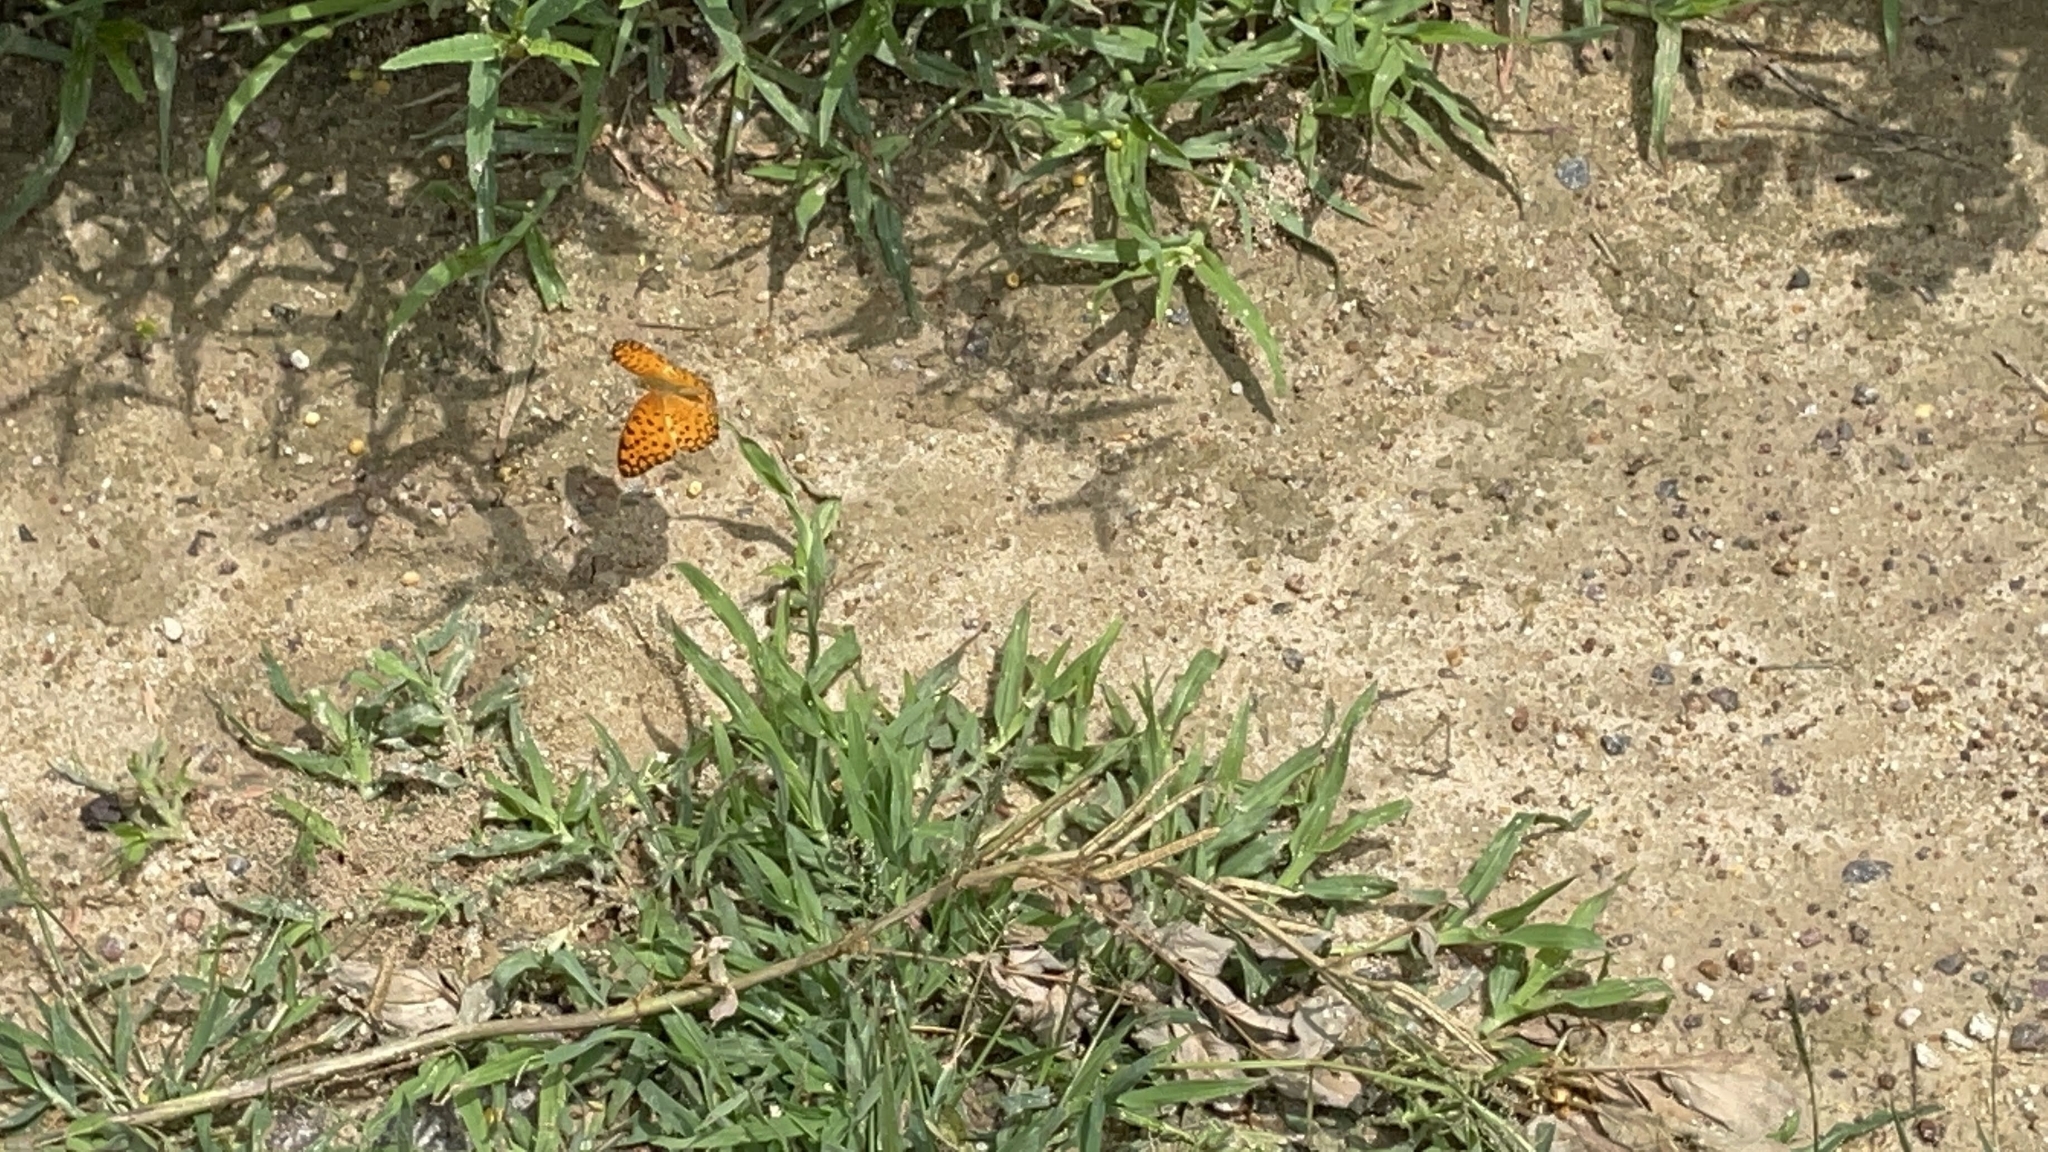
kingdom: Animalia
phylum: Arthropoda
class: Insecta
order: Lepidoptera
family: Nymphalidae
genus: Phalanta
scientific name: Phalanta phalantha
